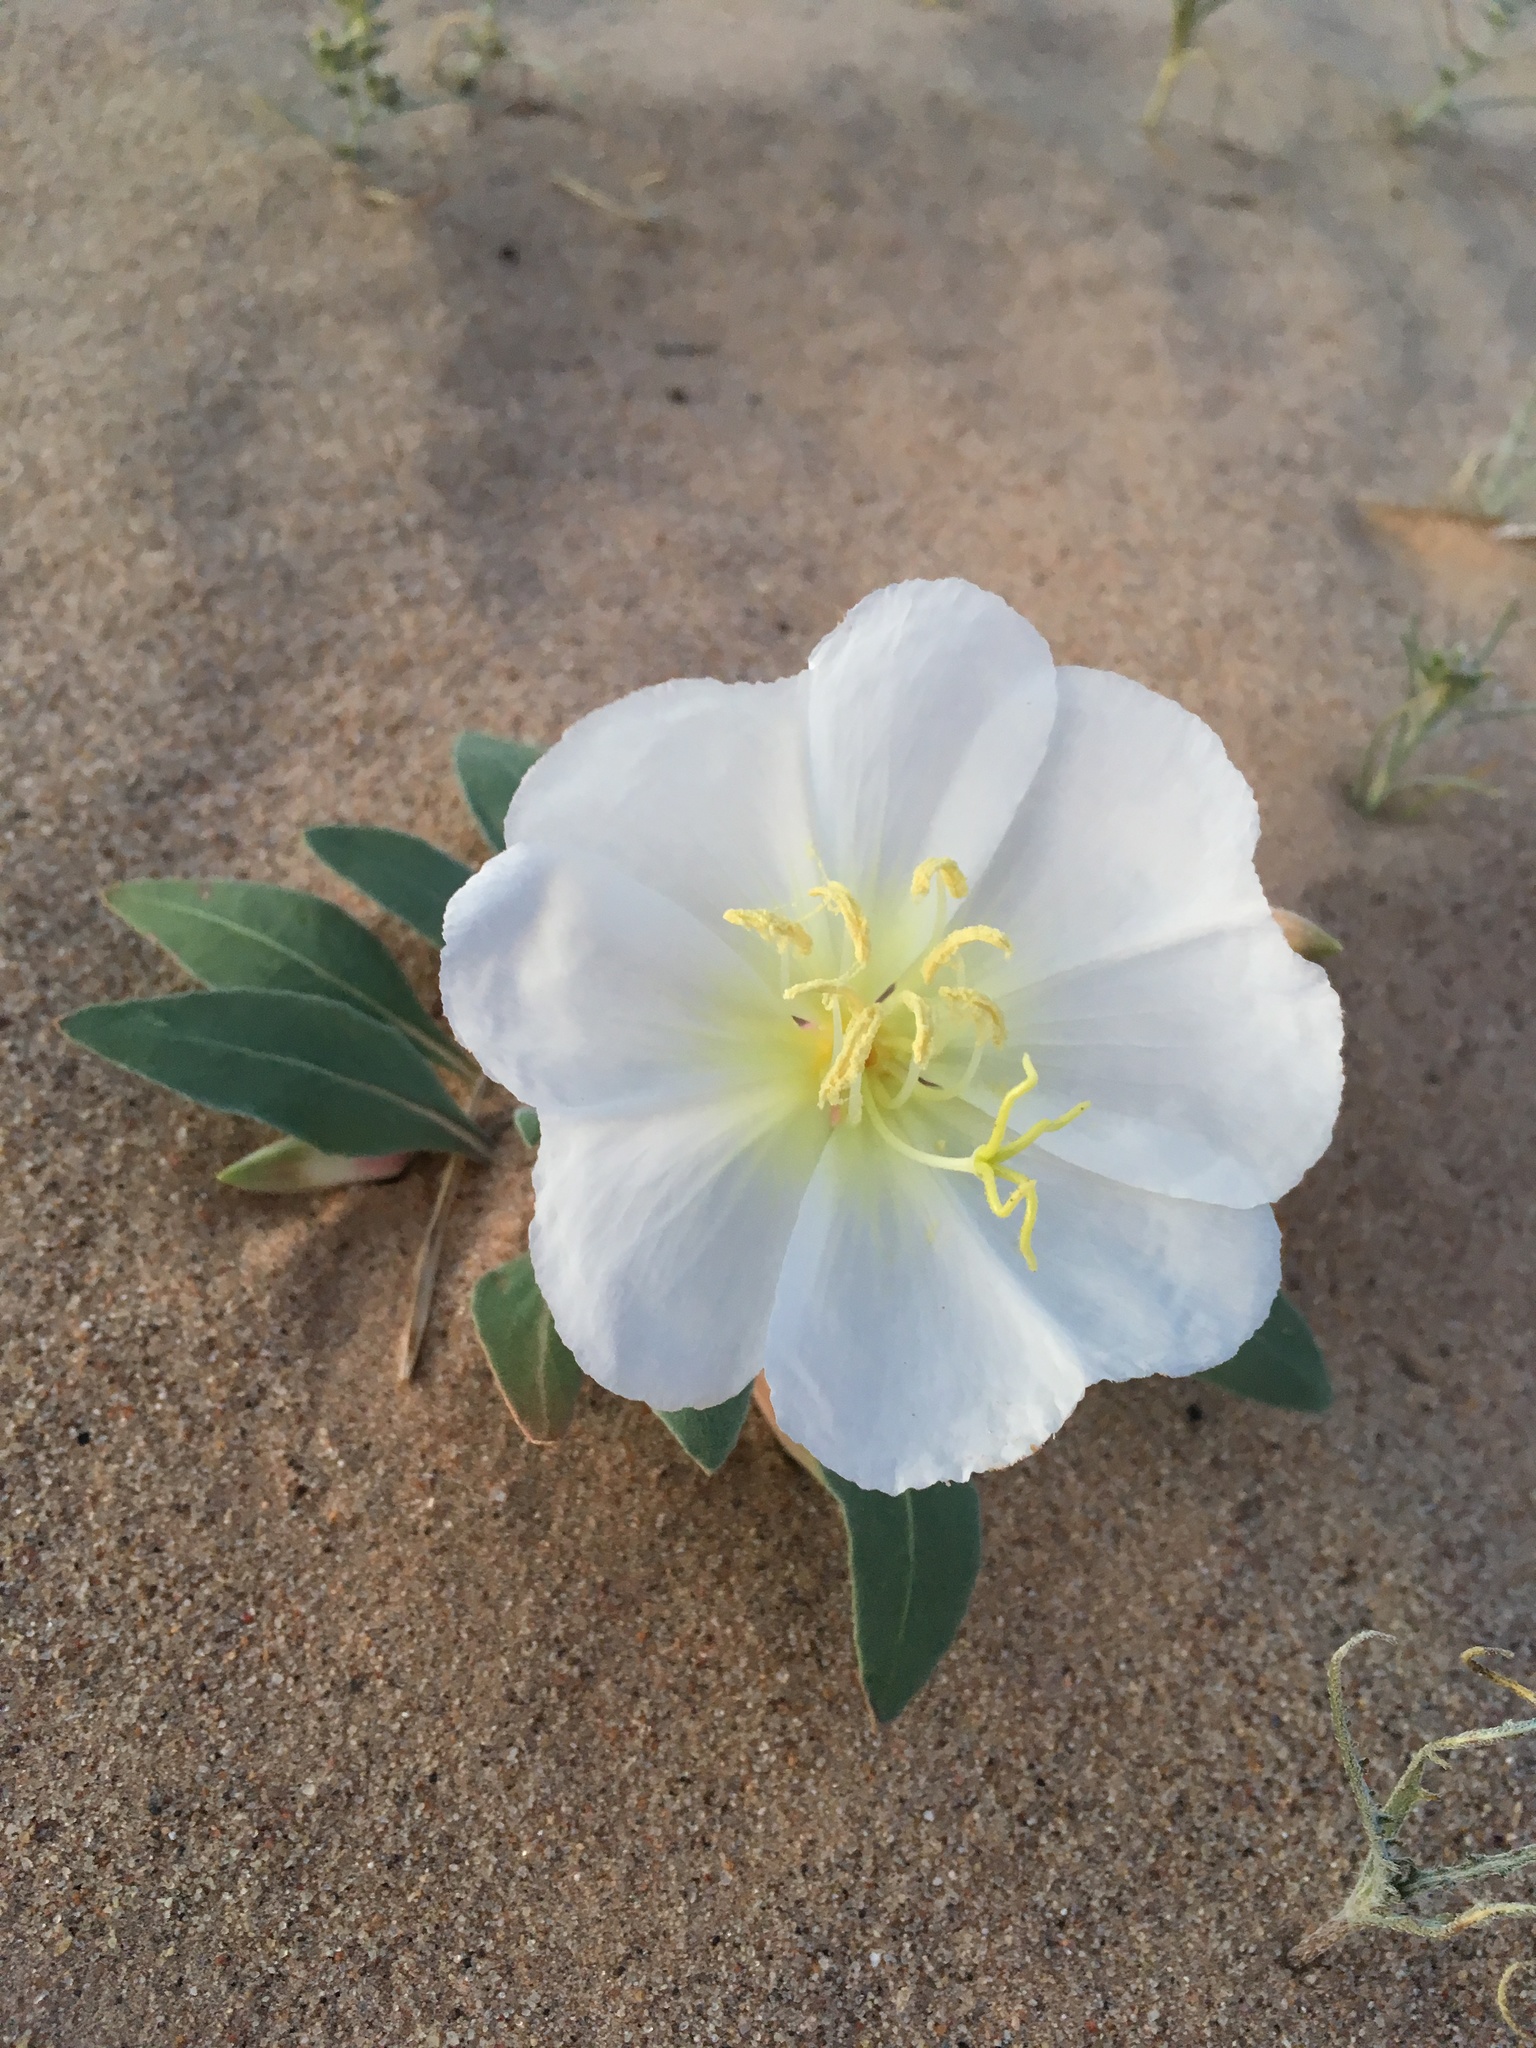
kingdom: Plantae
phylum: Tracheophyta
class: Magnoliopsida
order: Myrtales
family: Onagraceae
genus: Oenothera
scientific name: Oenothera deltoides
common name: Basket evening-primrose
